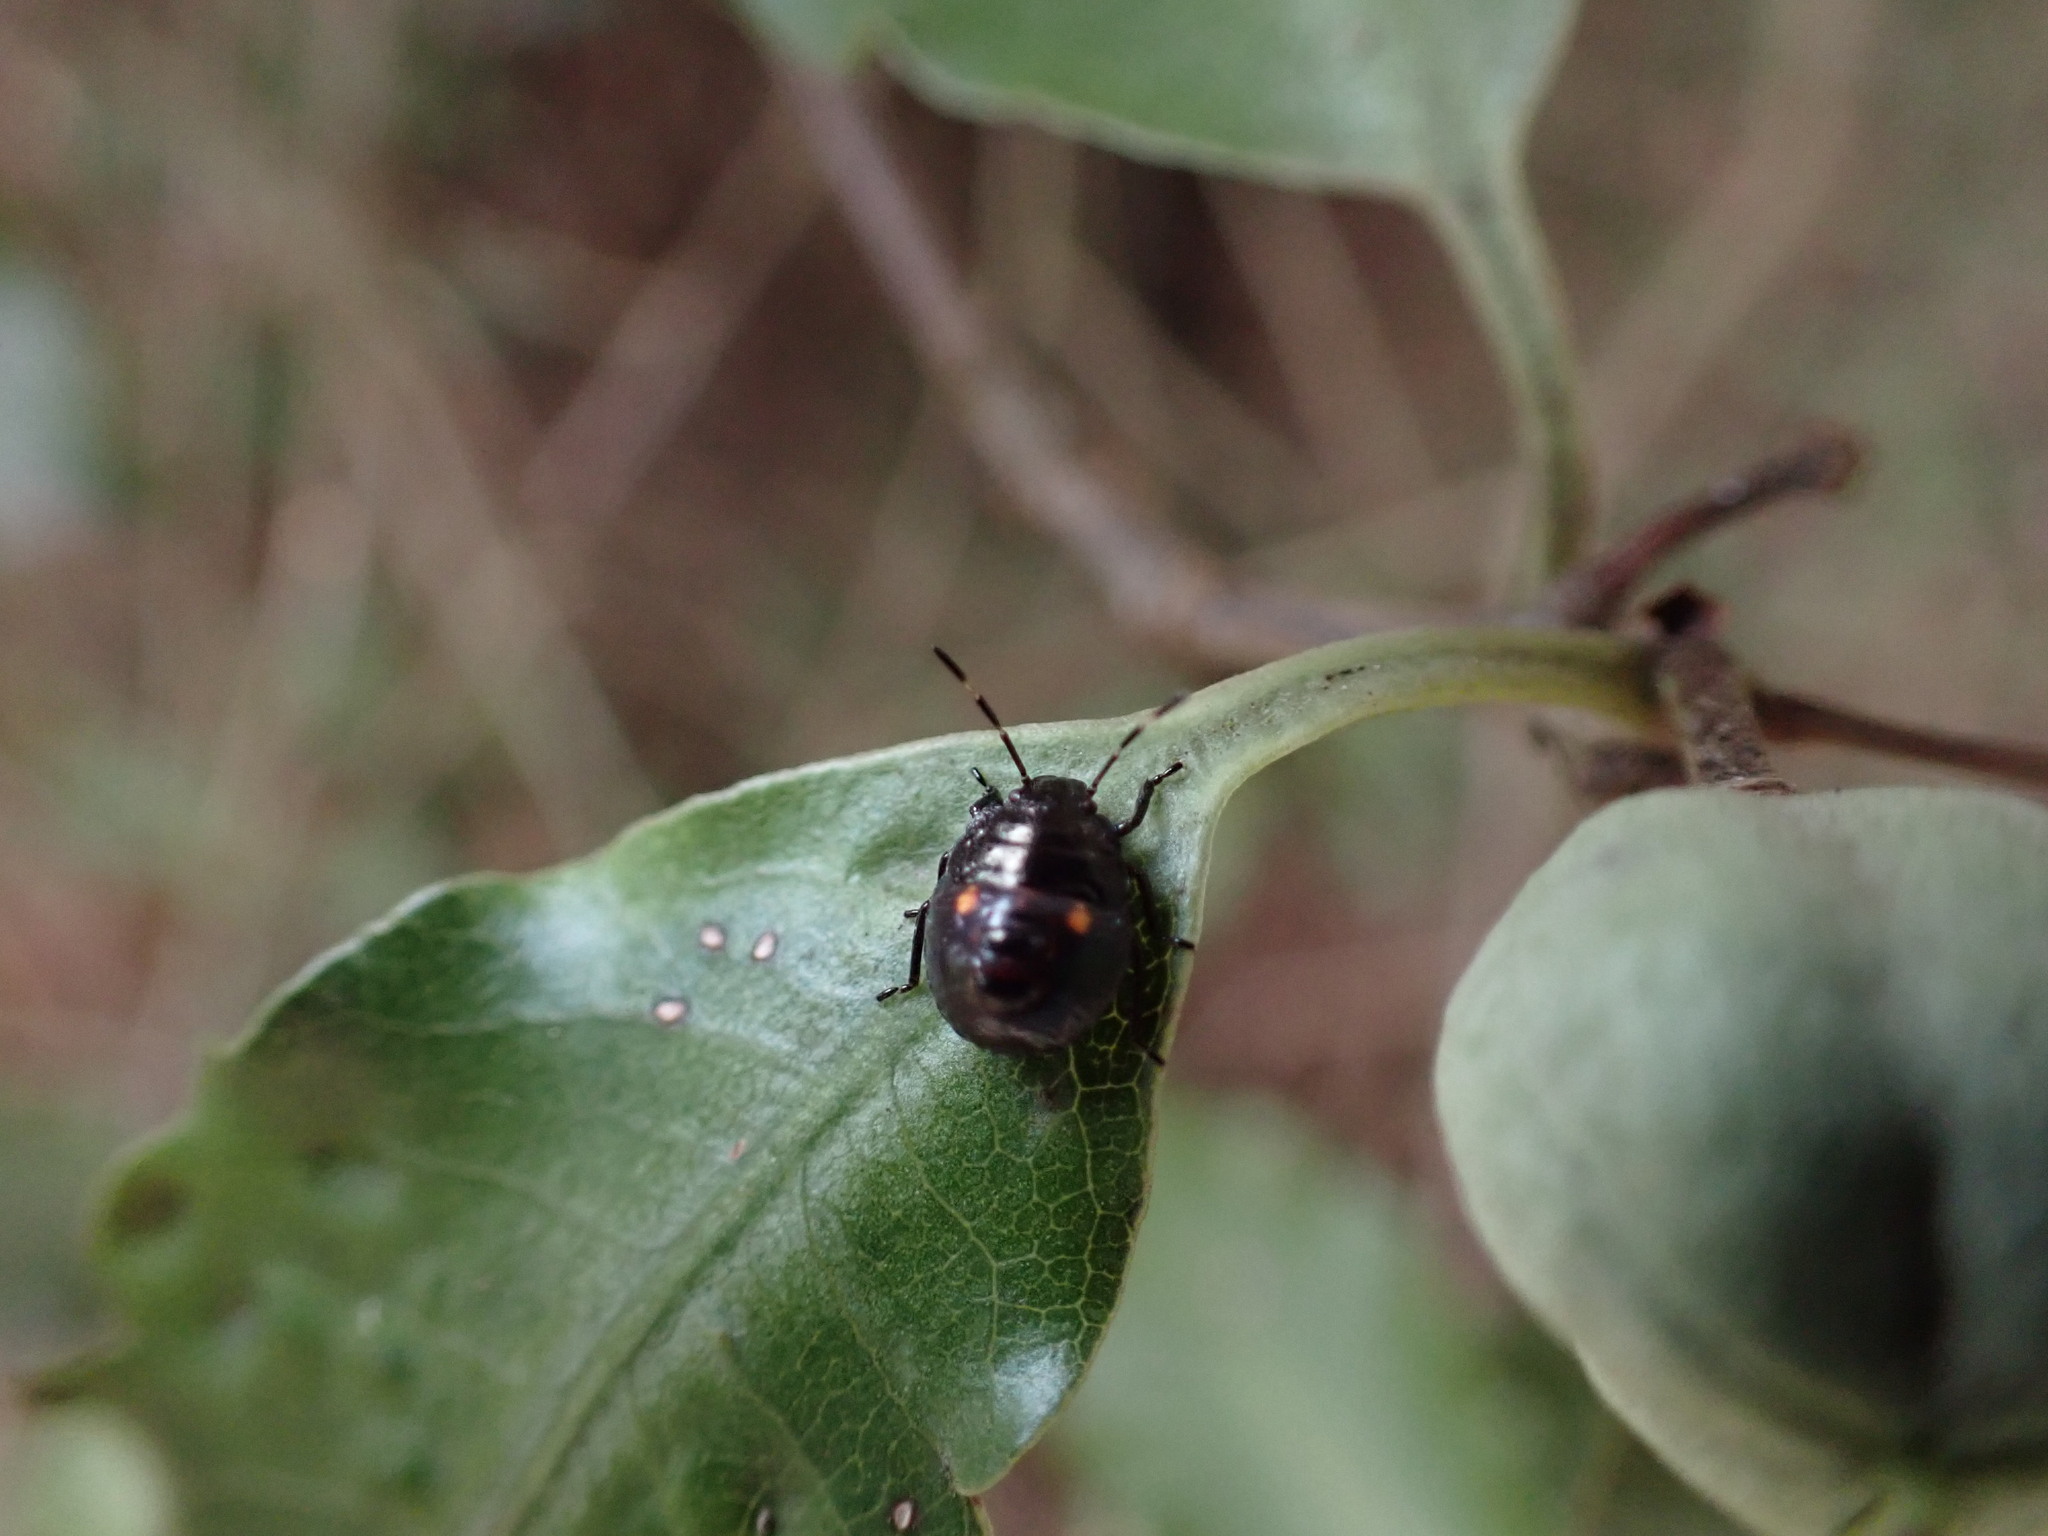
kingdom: Animalia
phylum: Arthropoda
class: Insecta
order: Hemiptera
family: Pentatomidae
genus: Monteithiella
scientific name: Monteithiella
